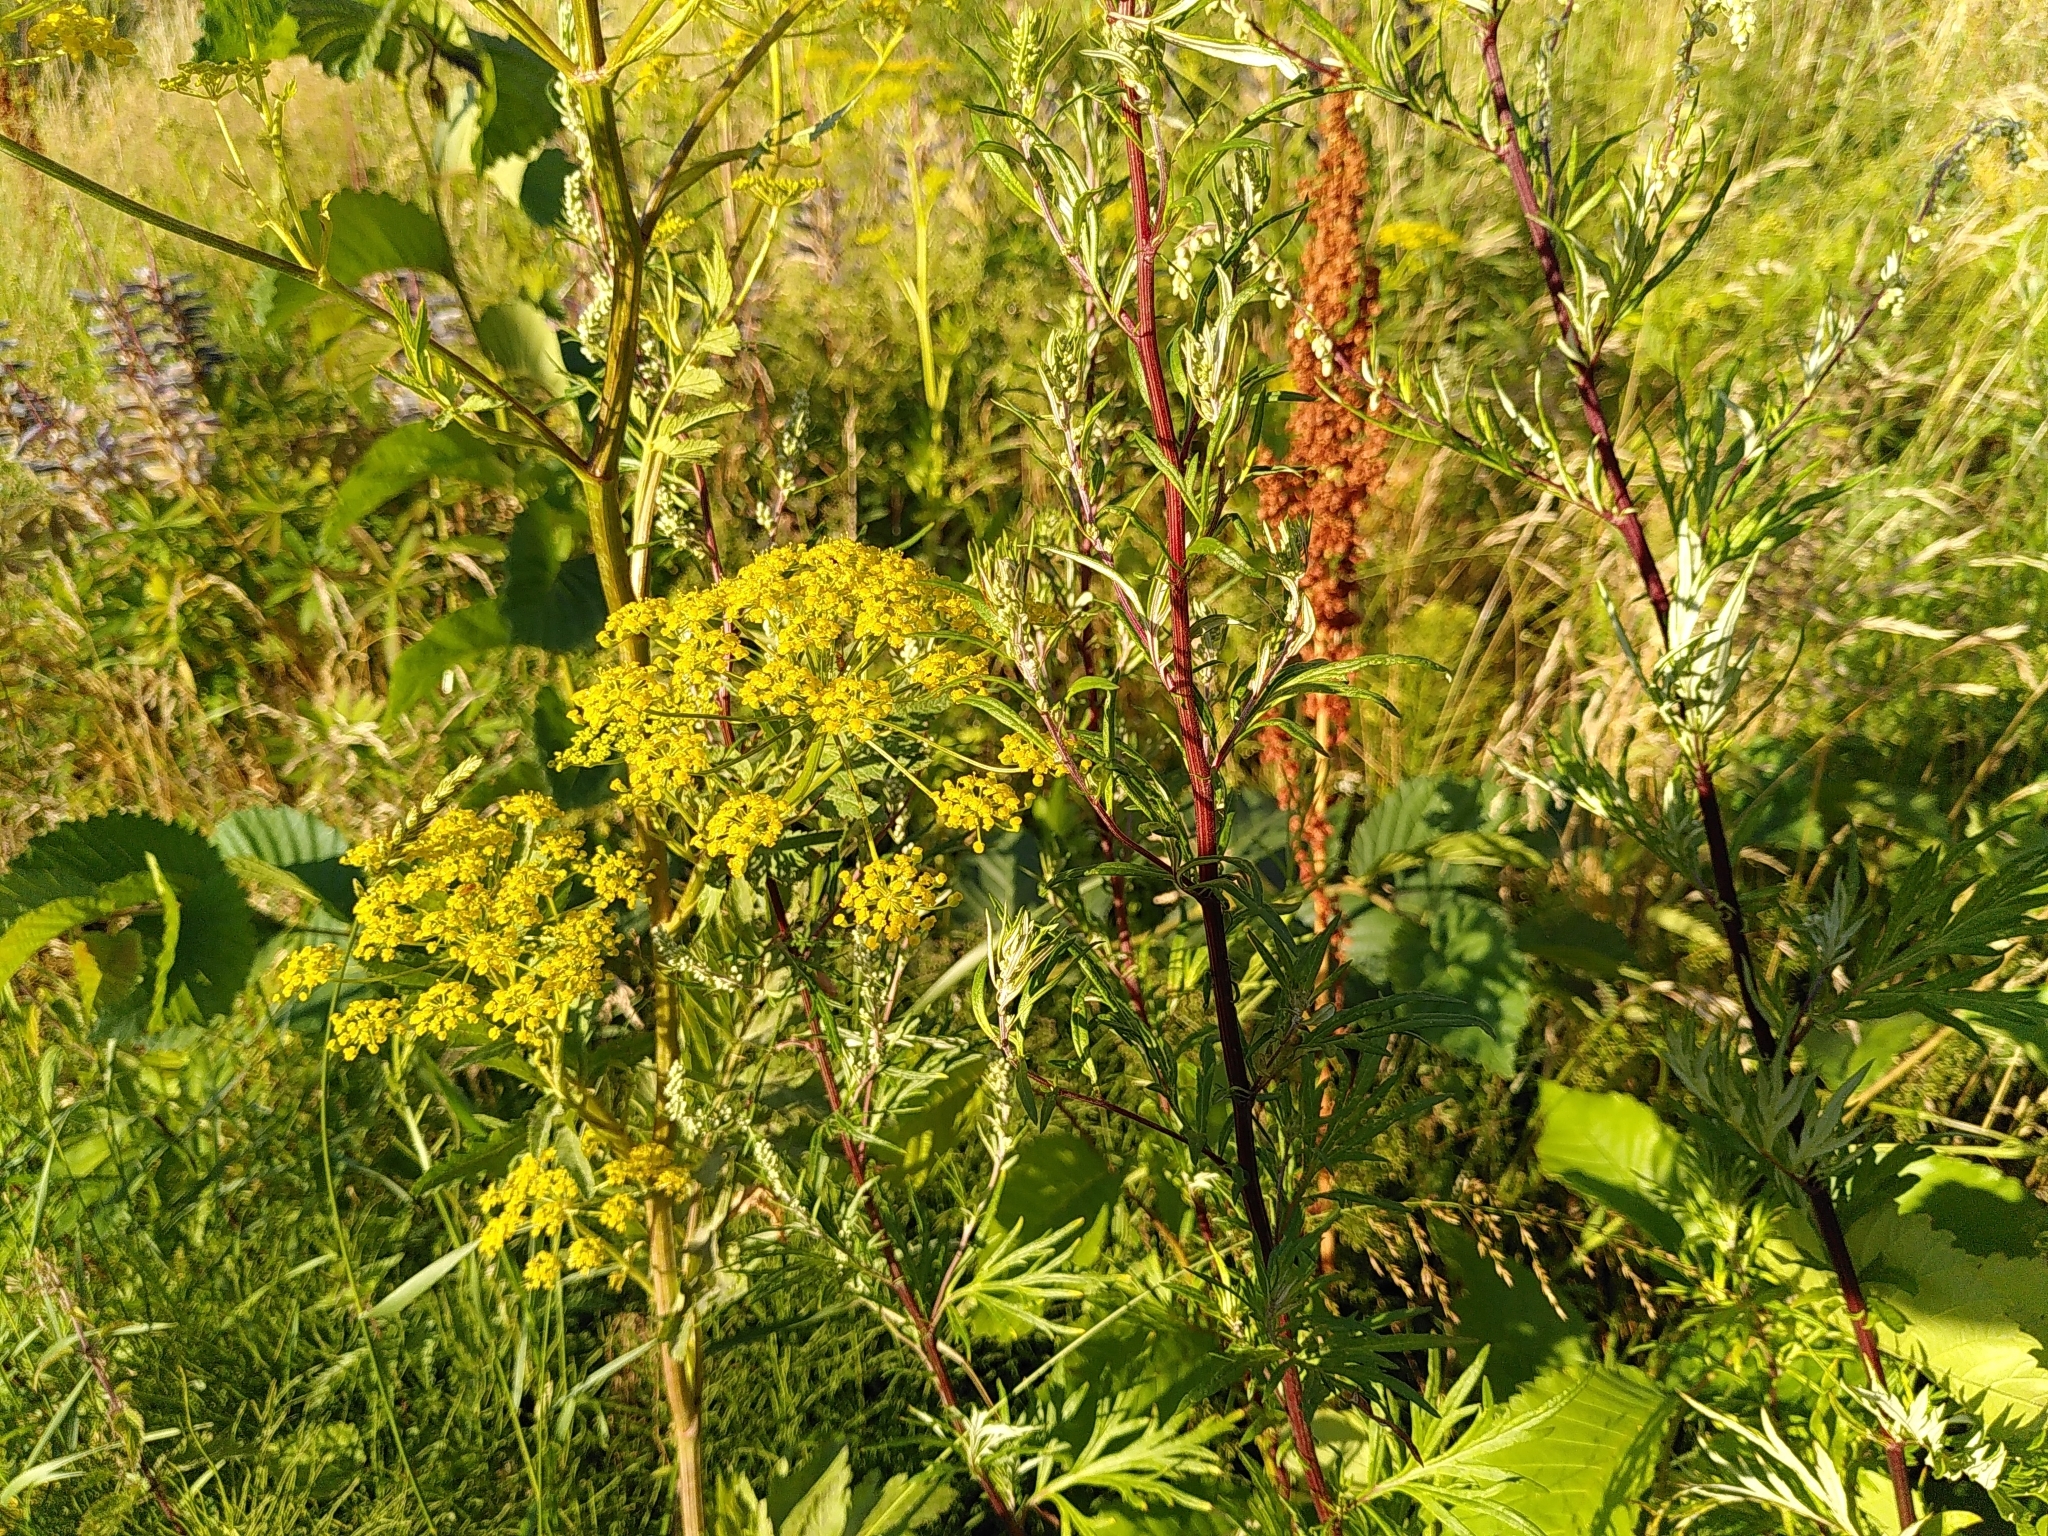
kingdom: Plantae
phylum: Tracheophyta
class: Magnoliopsida
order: Apiales
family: Apiaceae
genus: Pastinaca
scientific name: Pastinaca sativa
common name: Wild parsnip
